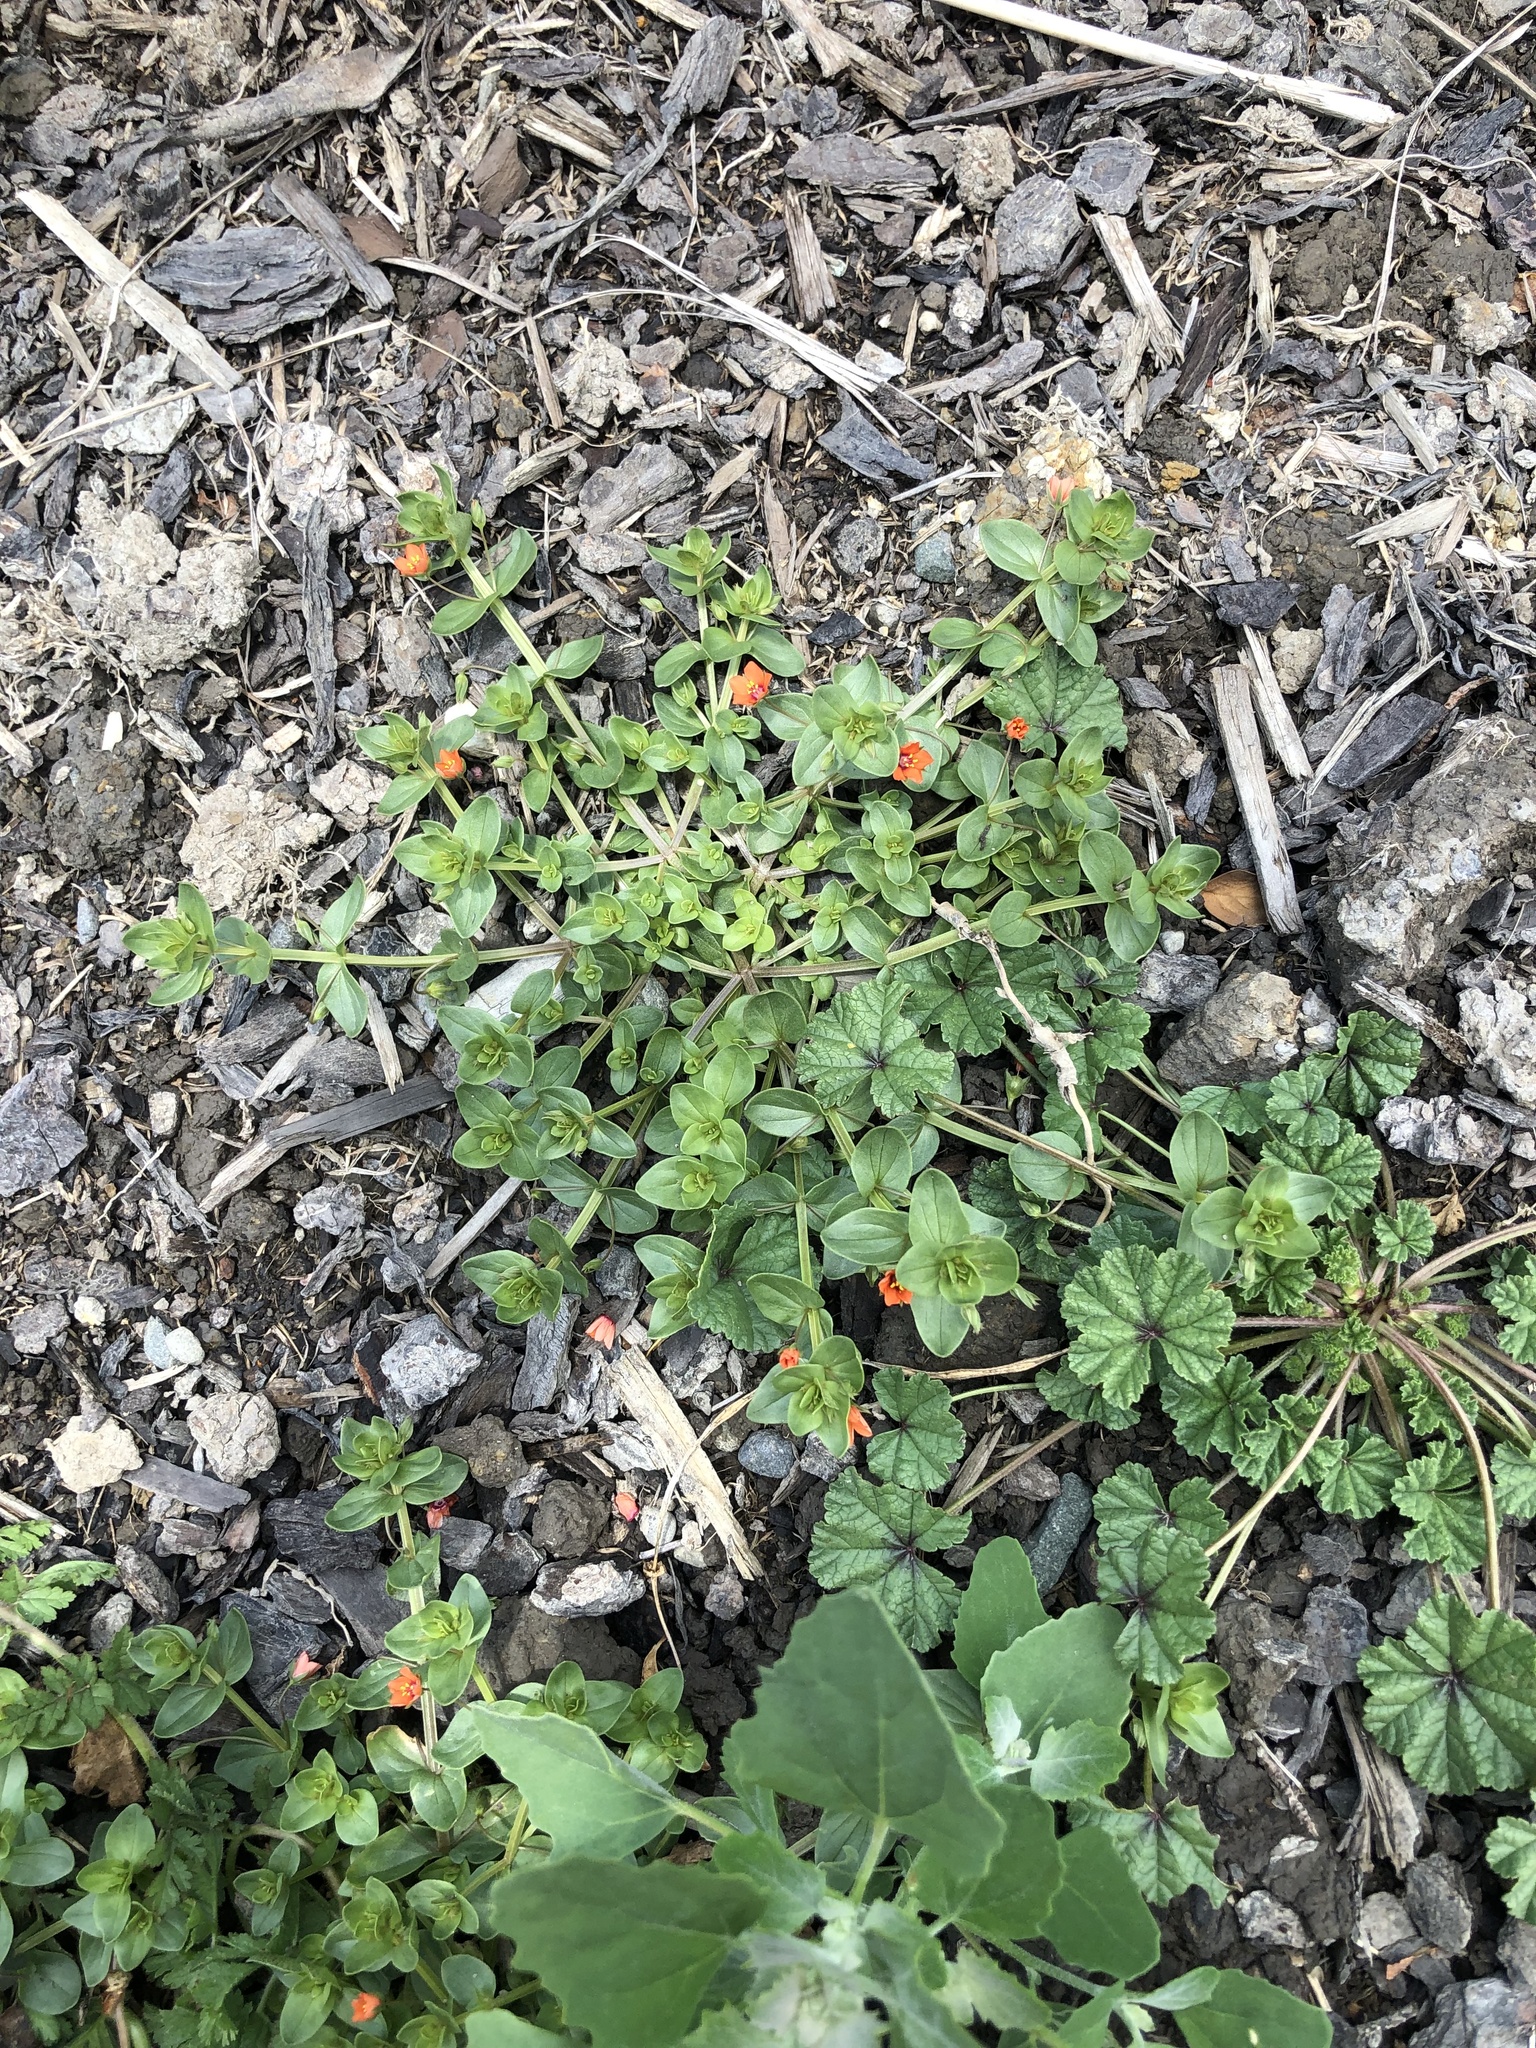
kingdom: Plantae
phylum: Tracheophyta
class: Magnoliopsida
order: Ericales
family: Primulaceae
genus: Lysimachia
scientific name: Lysimachia arvensis
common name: Scarlet pimpernel
